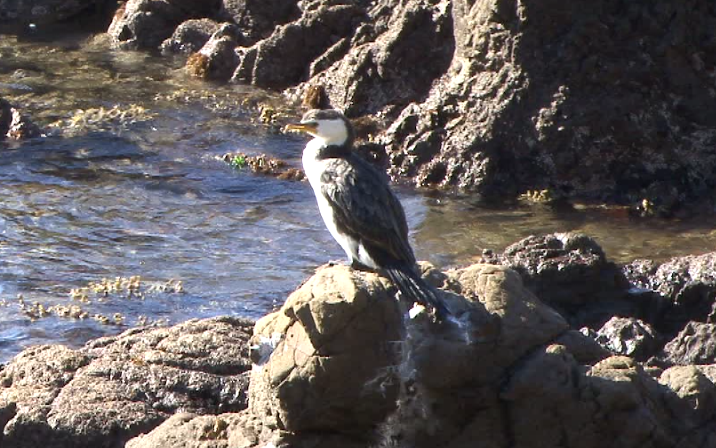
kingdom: Animalia
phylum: Chordata
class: Aves
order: Suliformes
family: Phalacrocoracidae
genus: Microcarbo
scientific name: Microcarbo melanoleucos
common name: Little pied cormorant
